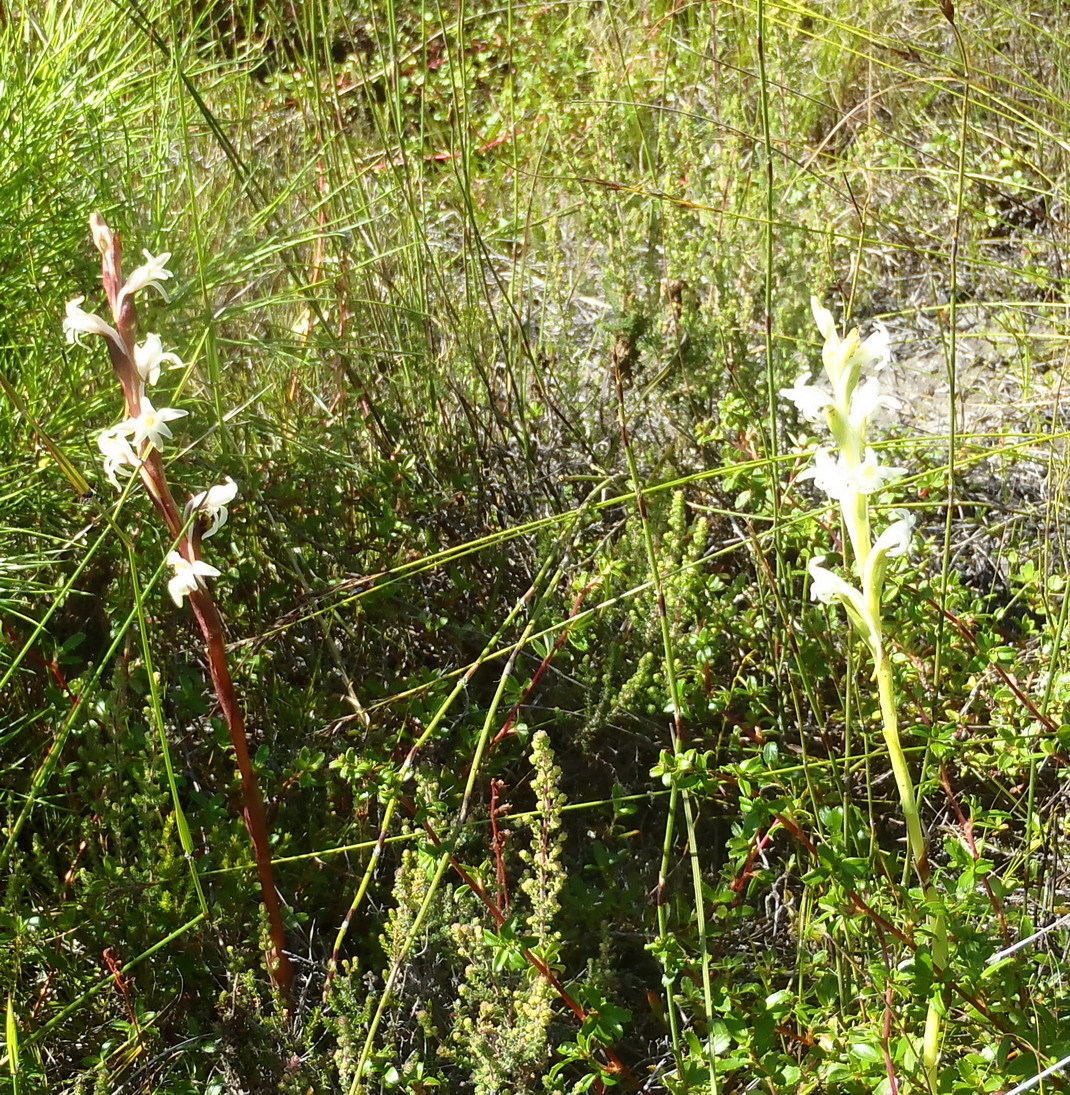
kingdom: Plantae
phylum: Tracheophyta
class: Liliopsida
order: Asparagales
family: Orchidaceae
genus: Satyrium
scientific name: Satyrium stenopetalum
